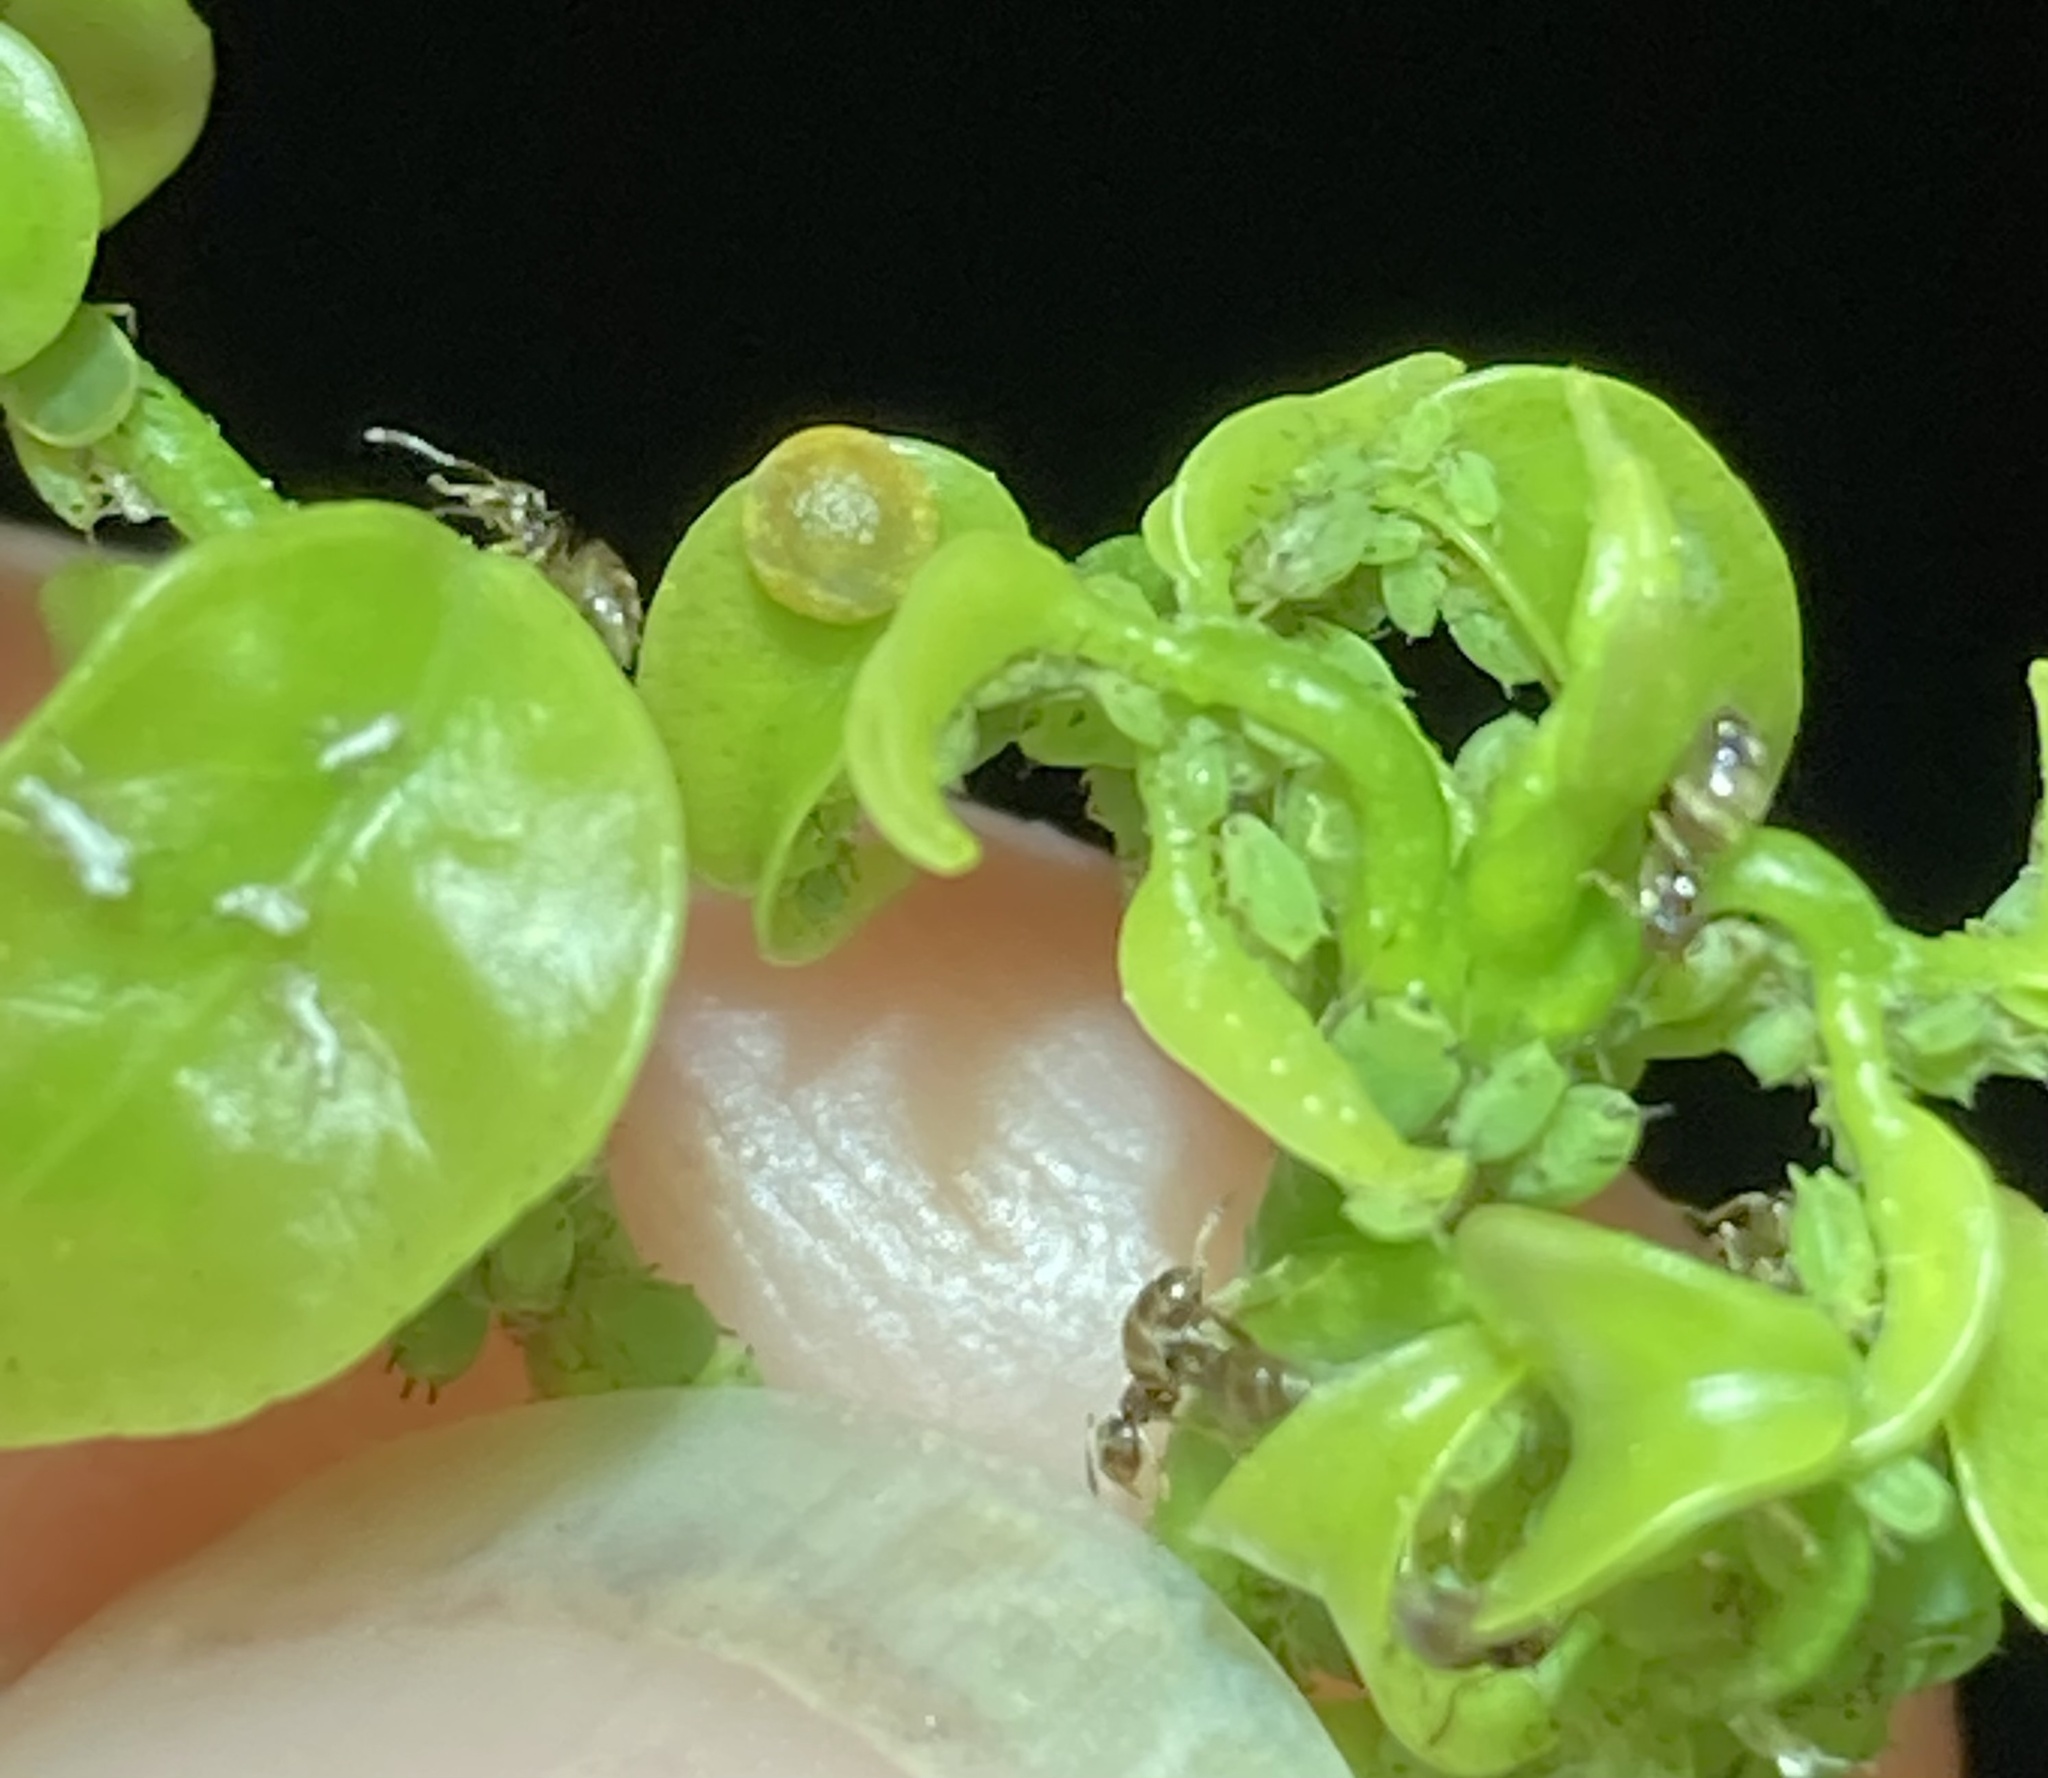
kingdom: Animalia
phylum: Arthropoda
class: Insecta
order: Lepidoptera
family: Papilionidae
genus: Papilio
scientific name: Papilio cresphontes
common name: Giant swallowtail
